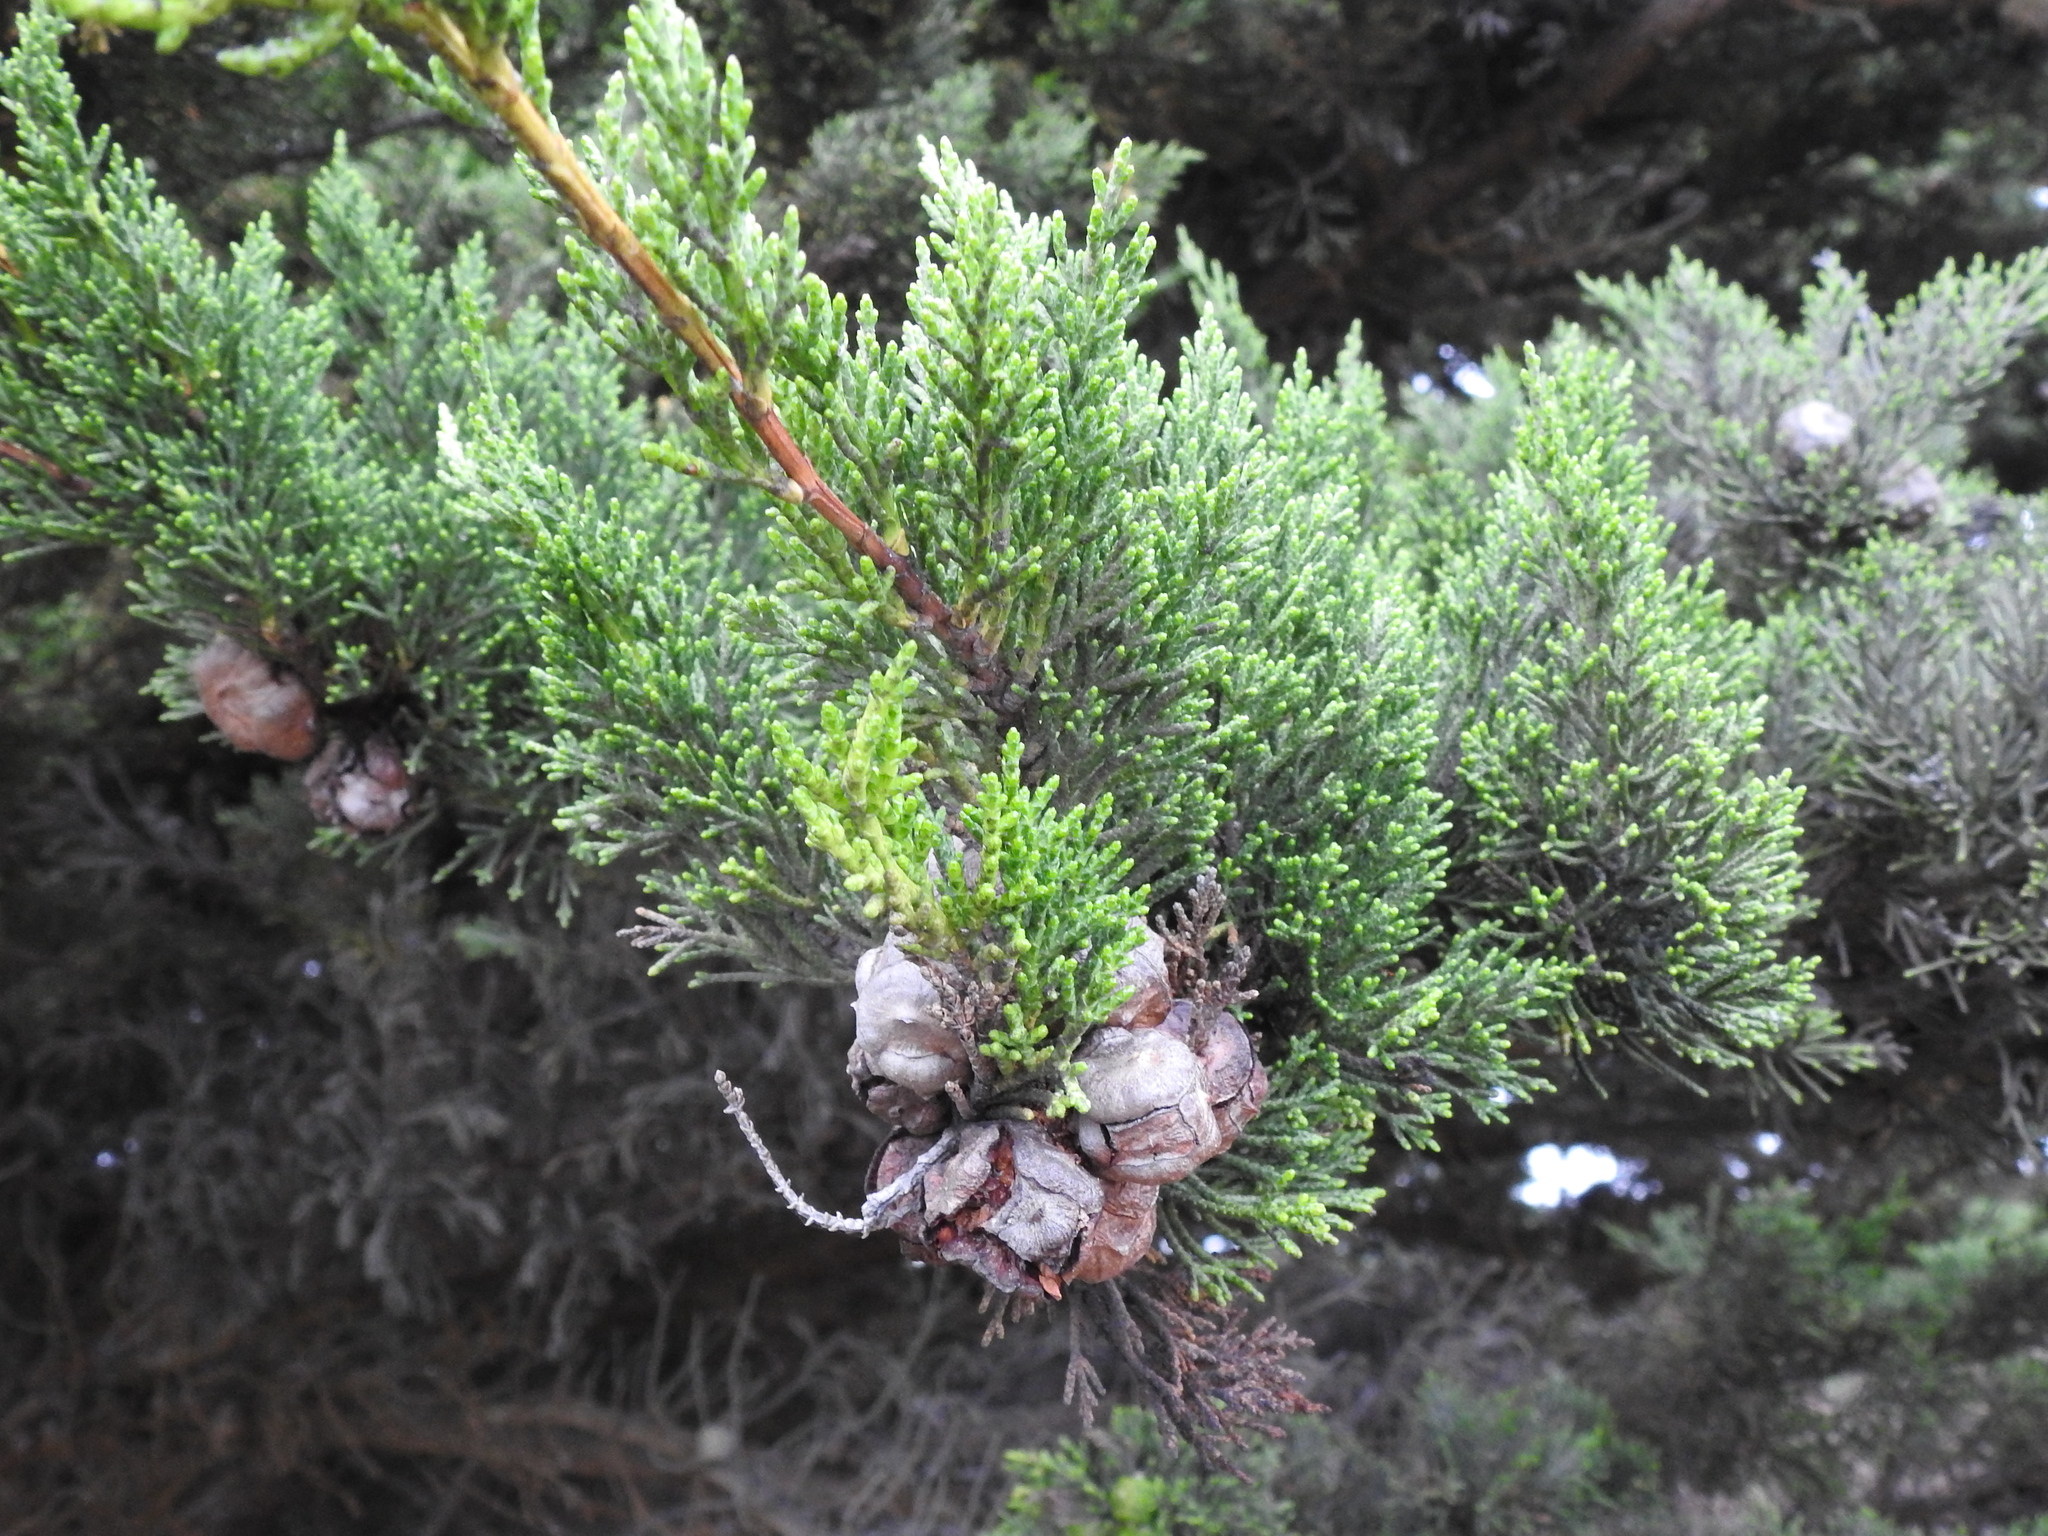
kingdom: Plantae
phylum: Tracheophyta
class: Pinopsida
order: Pinales
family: Cupressaceae
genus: Cupressus
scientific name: Cupressus macrocarpa
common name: Monterey cypress
